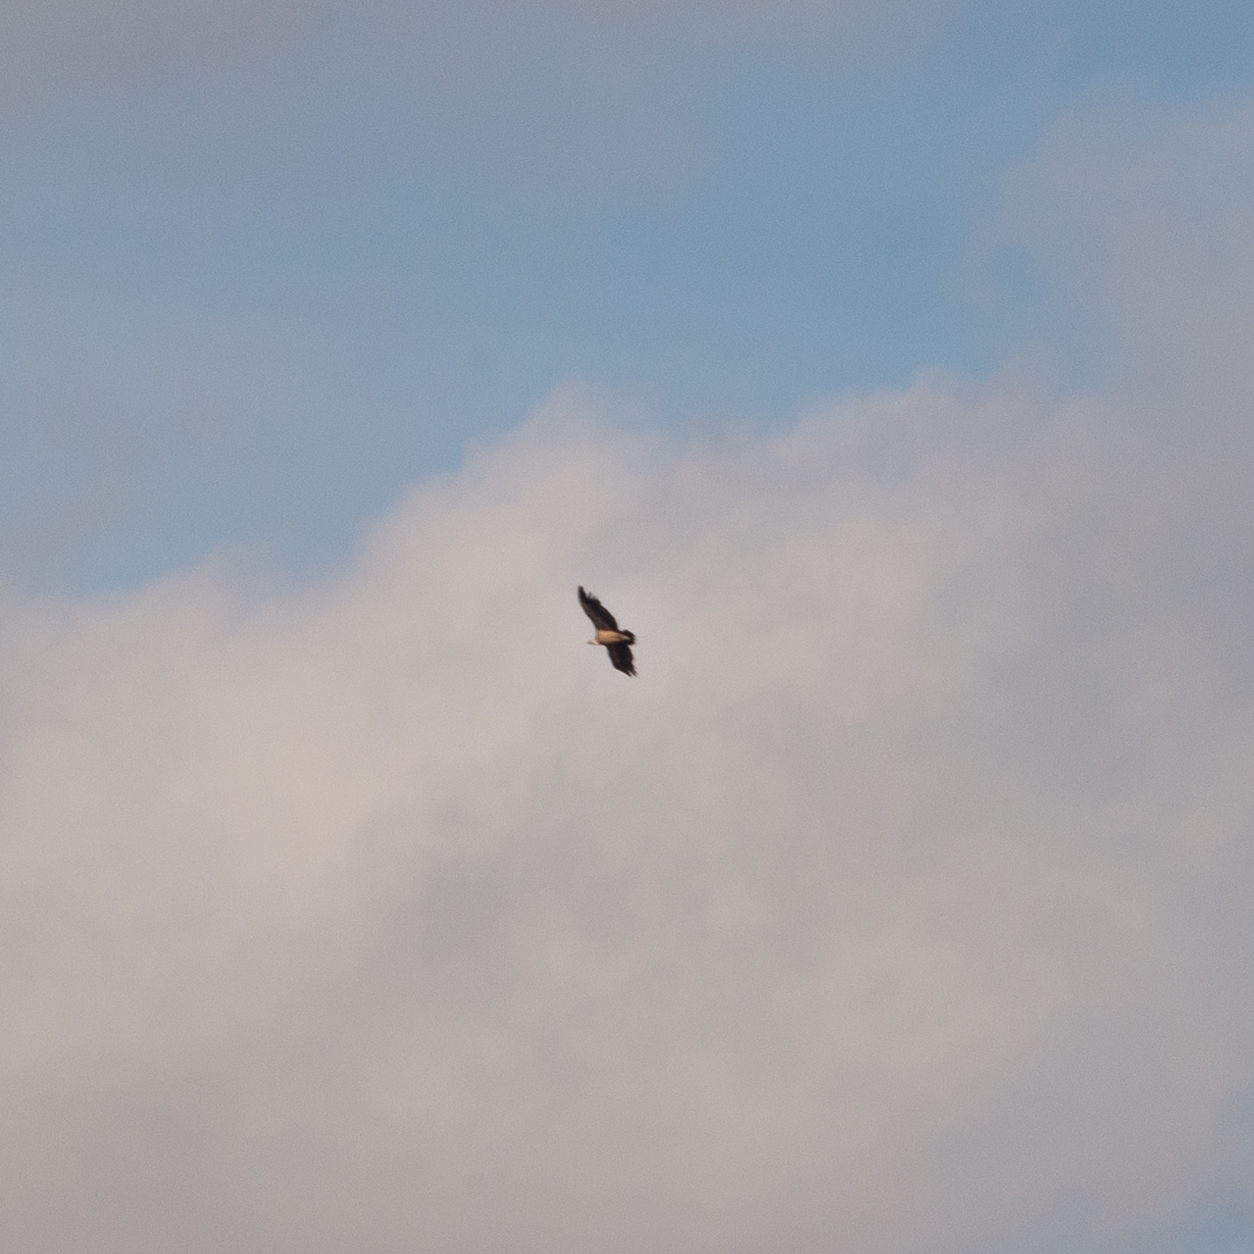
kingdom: Animalia
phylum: Chordata
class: Aves
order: Accipitriformes
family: Accipitridae
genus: Gyps
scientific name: Gyps fulvus
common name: Griffon vulture
